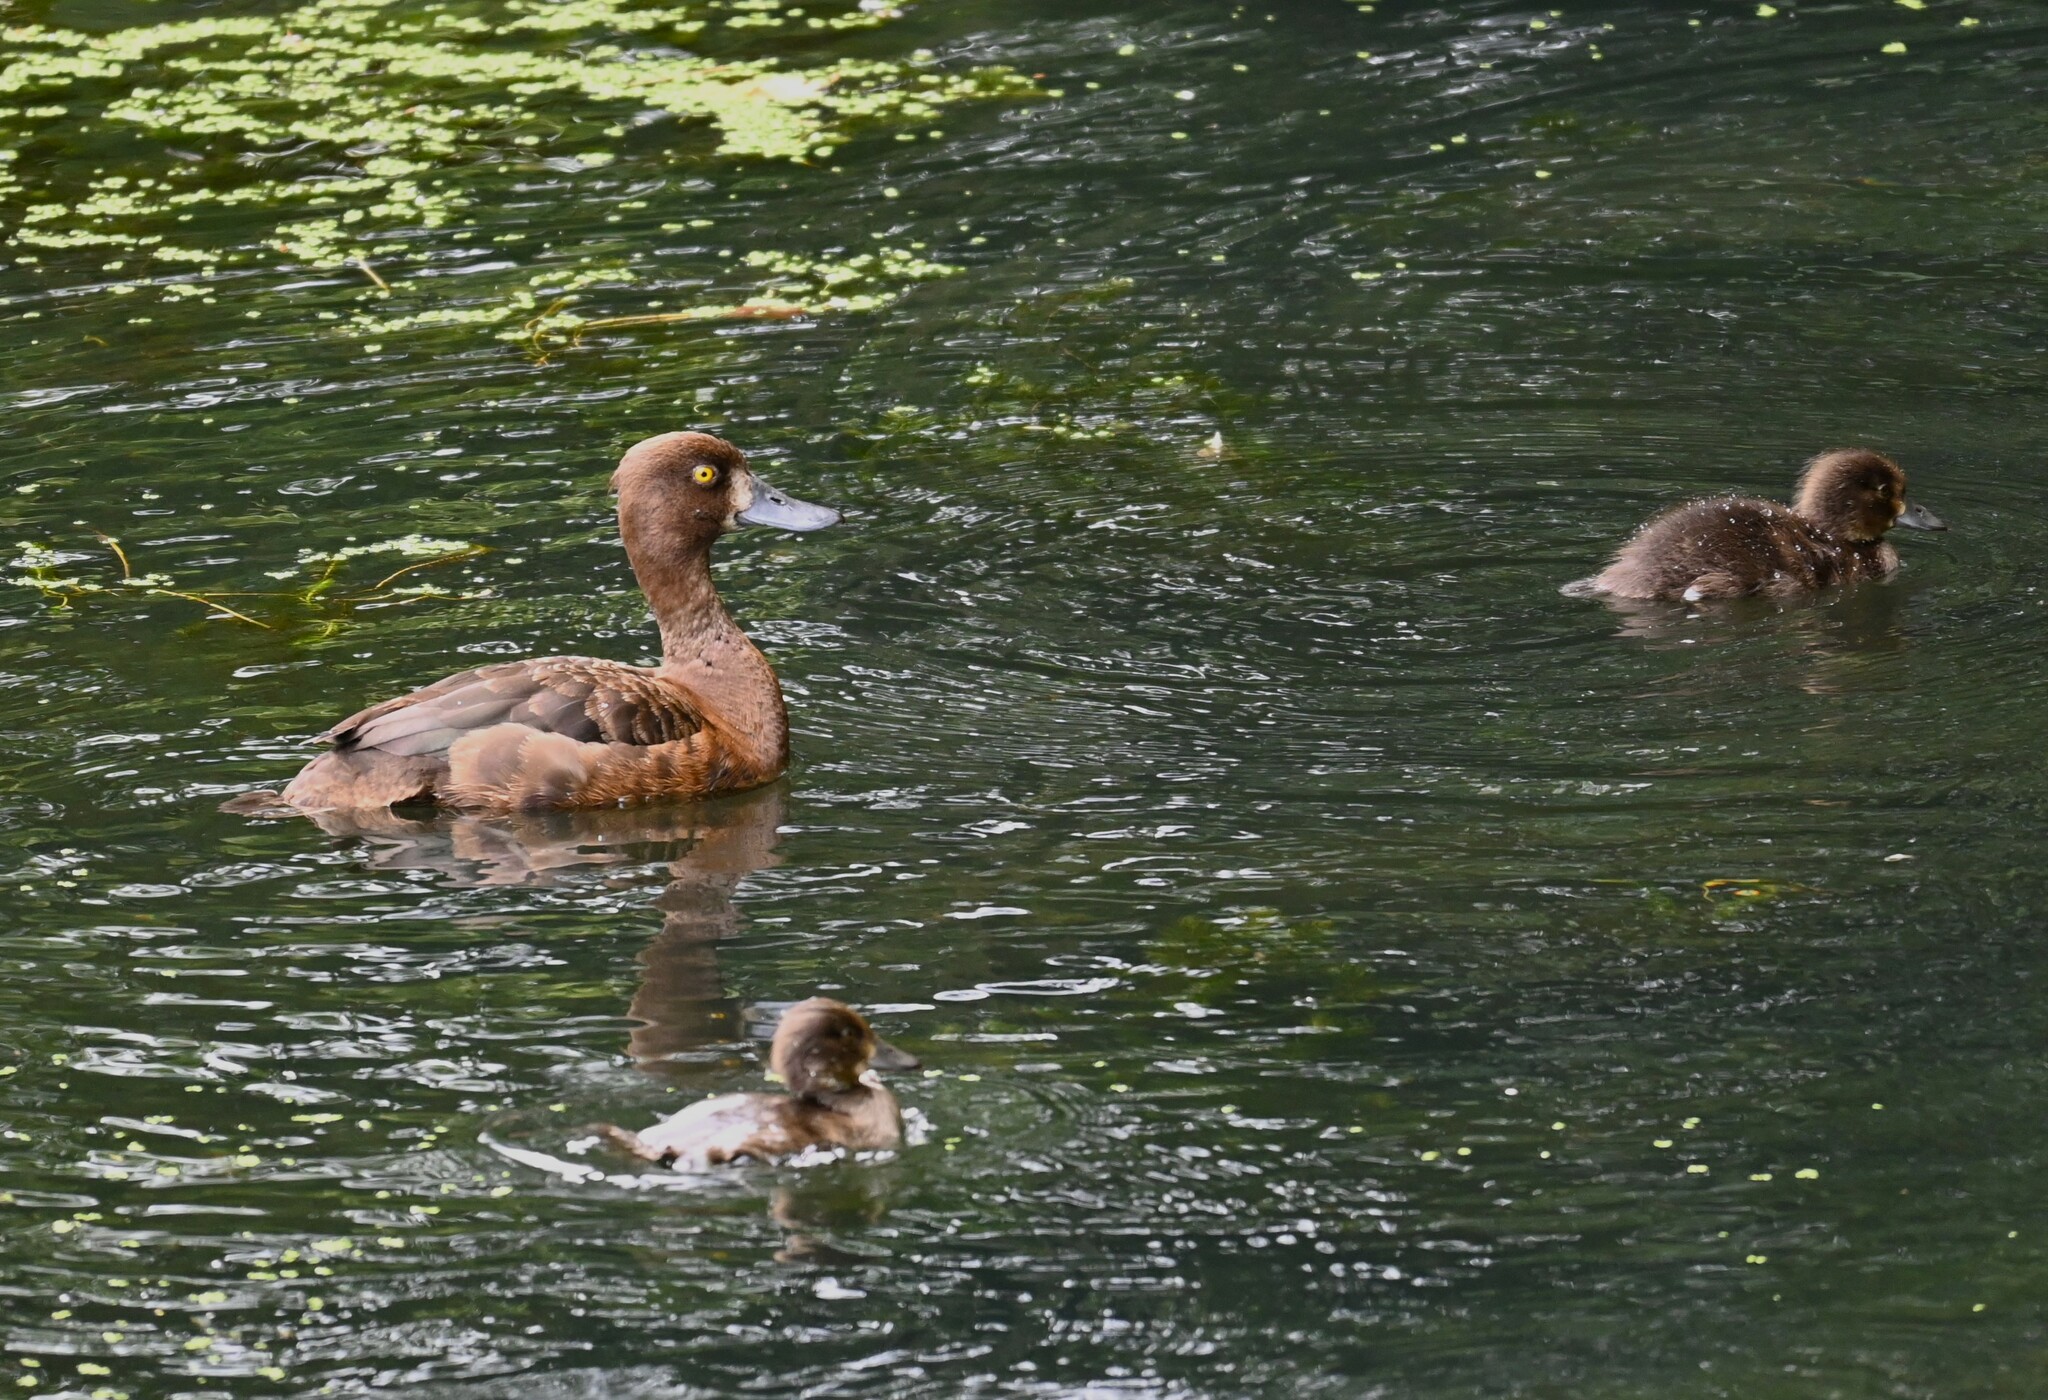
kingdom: Animalia
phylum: Chordata
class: Aves
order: Anseriformes
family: Anatidae
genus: Aythya
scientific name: Aythya fuligula
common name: Tufted duck
